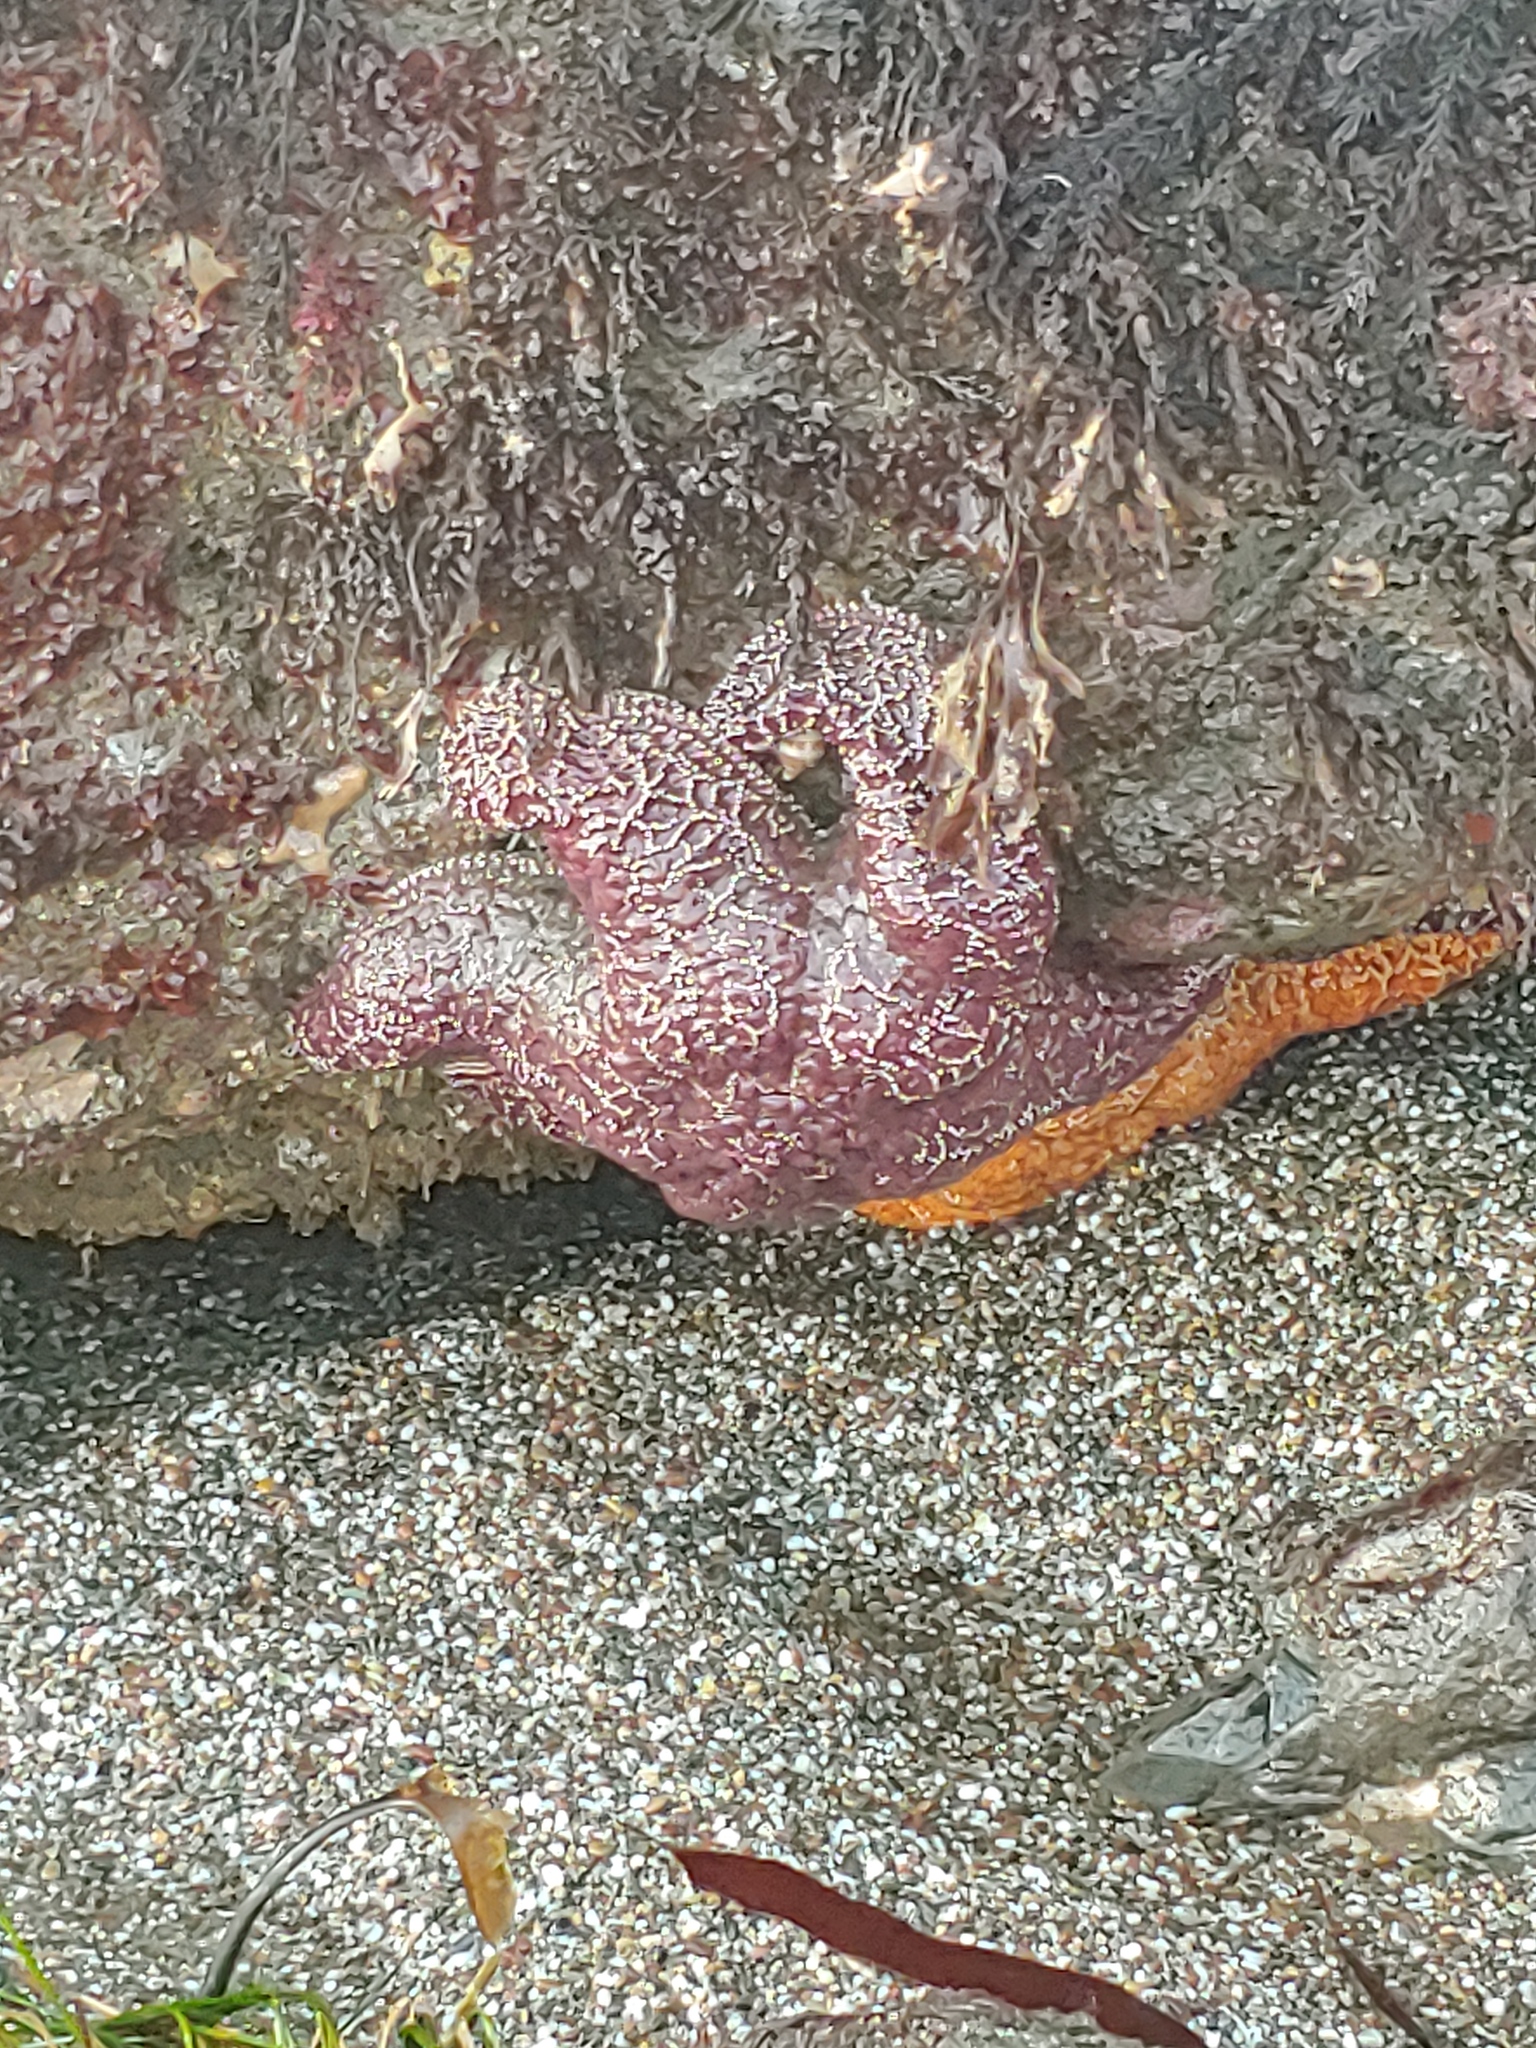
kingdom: Animalia
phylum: Echinodermata
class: Asteroidea
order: Forcipulatida
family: Asteriidae
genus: Pisaster
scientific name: Pisaster ochraceus
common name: Ochre stars
